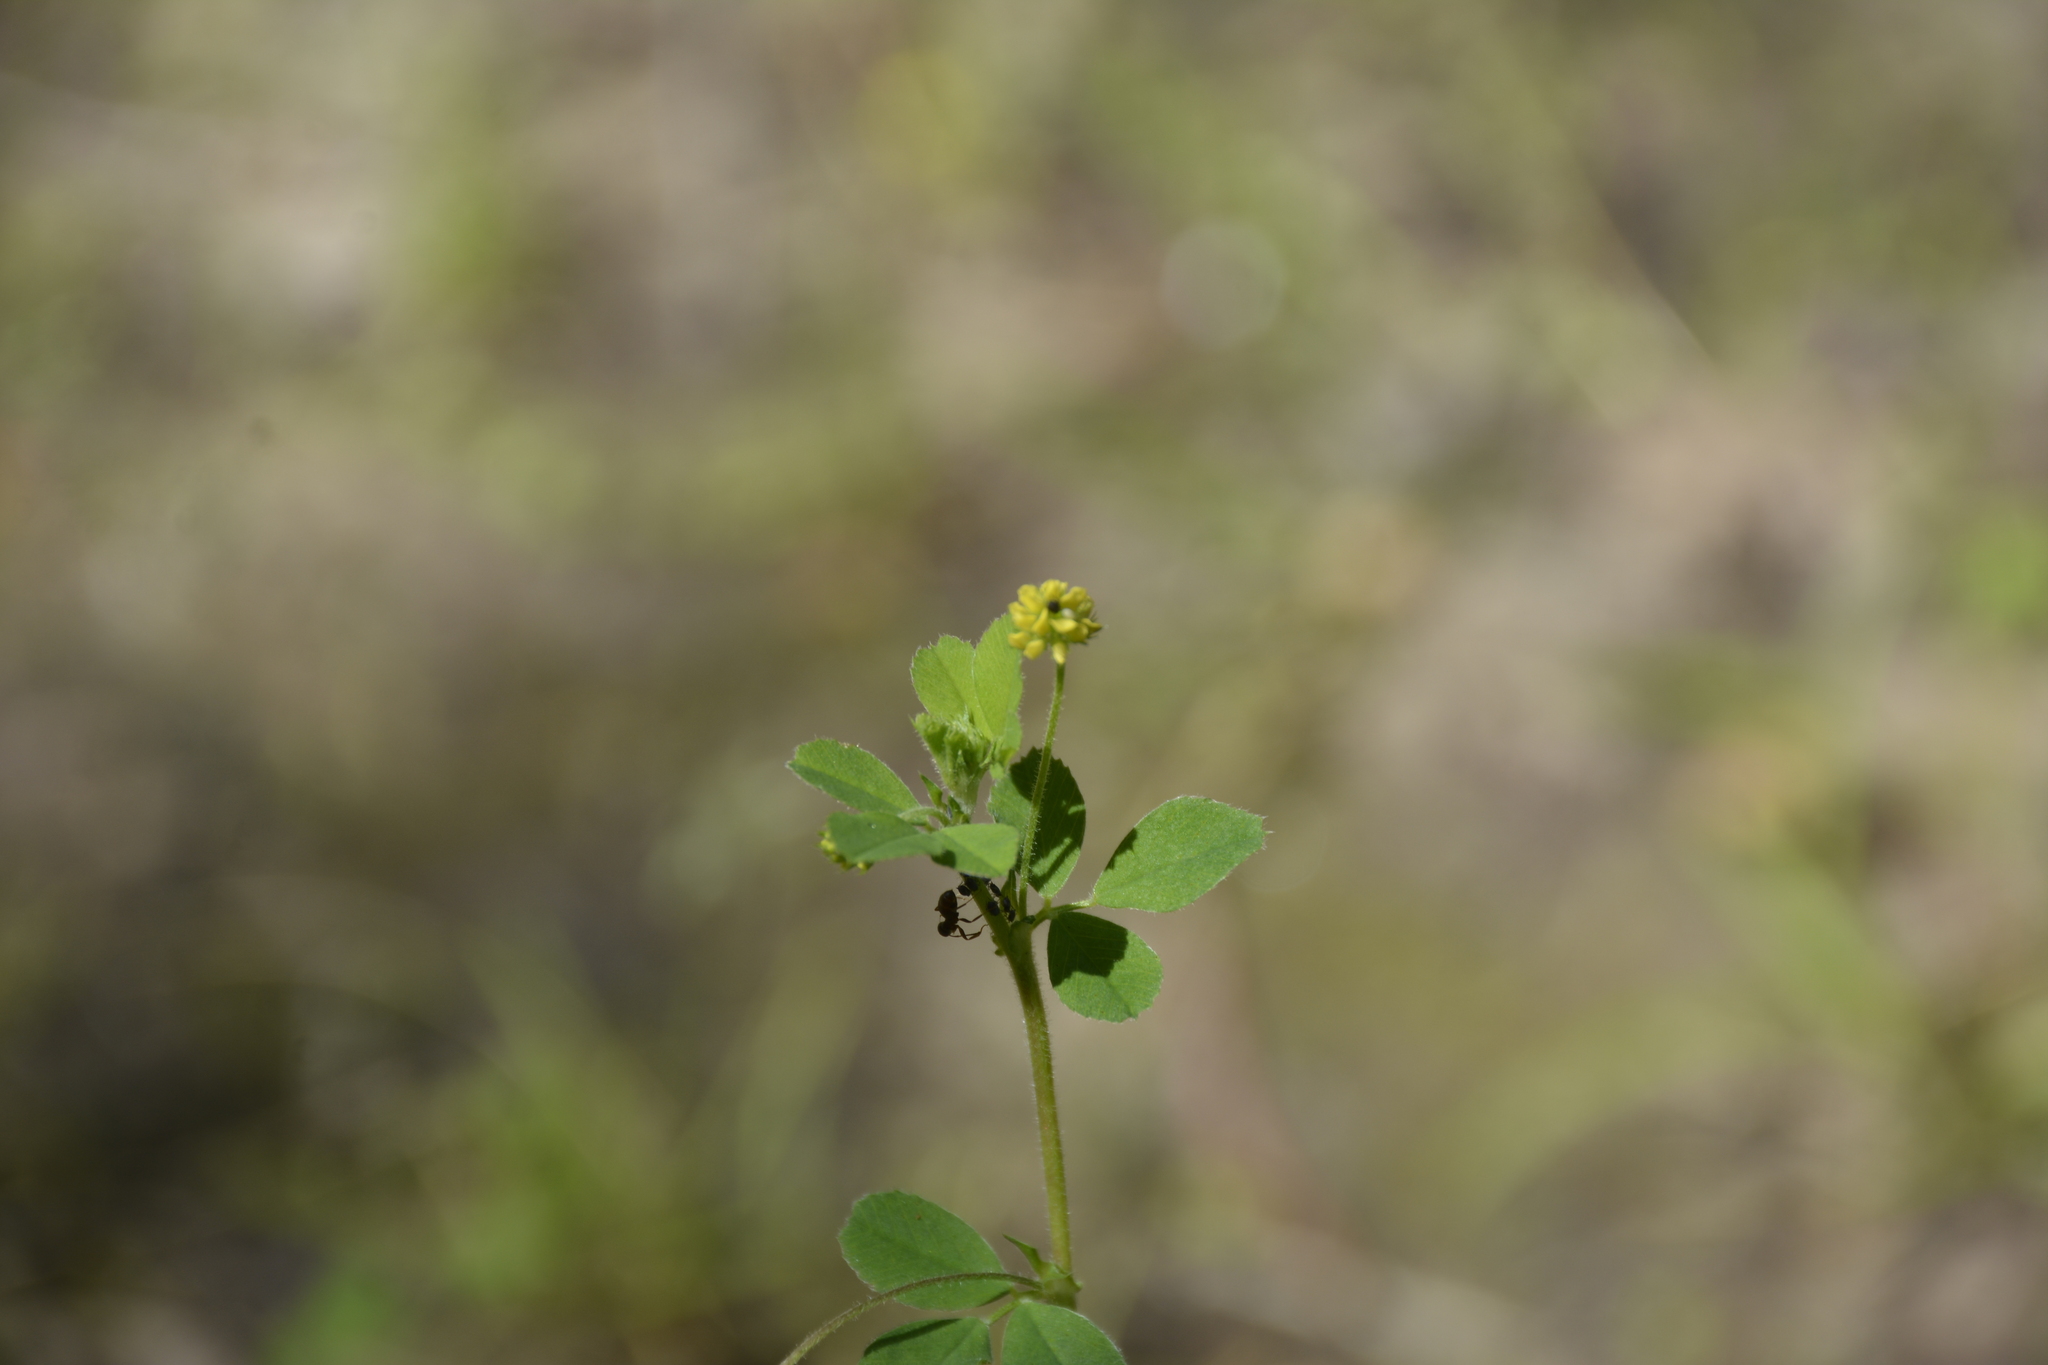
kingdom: Plantae
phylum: Tracheophyta
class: Magnoliopsida
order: Fabales
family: Fabaceae
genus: Medicago
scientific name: Medicago lupulina
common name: Black medick
